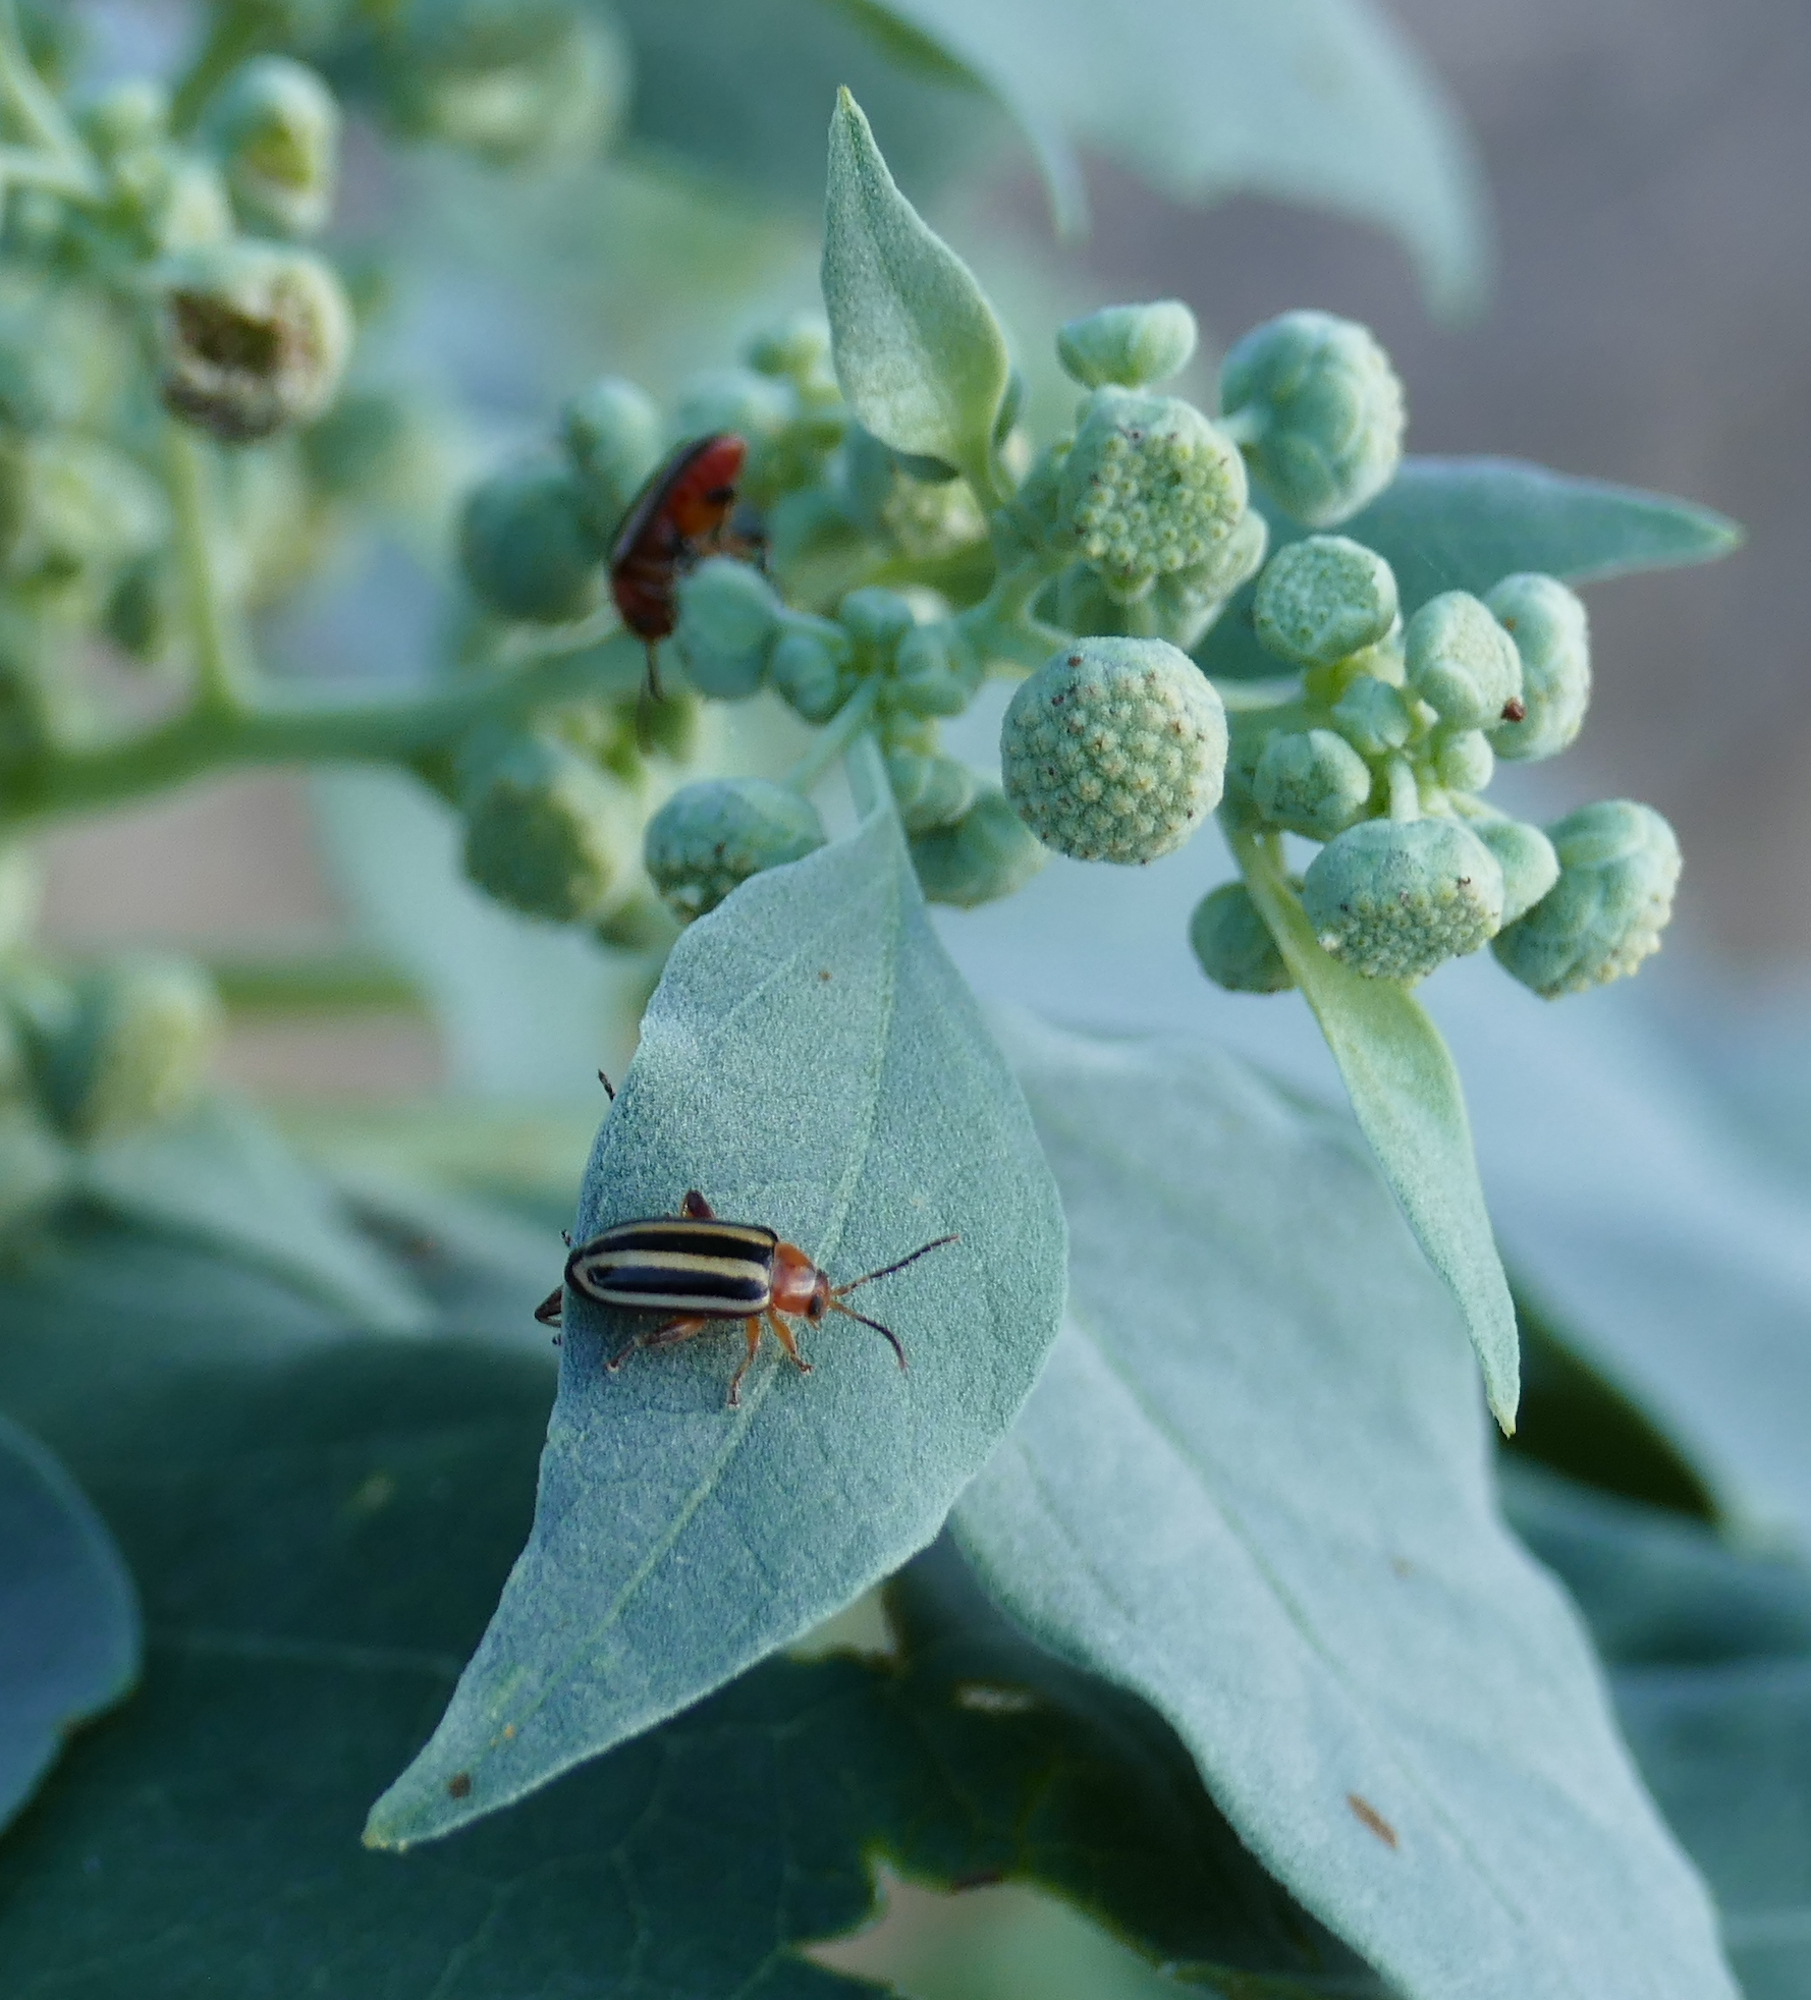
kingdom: Animalia
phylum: Arthropoda
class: Insecta
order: Coleoptera
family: Chrysomelidae
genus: Disonycha
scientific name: Disonycha glabrata
